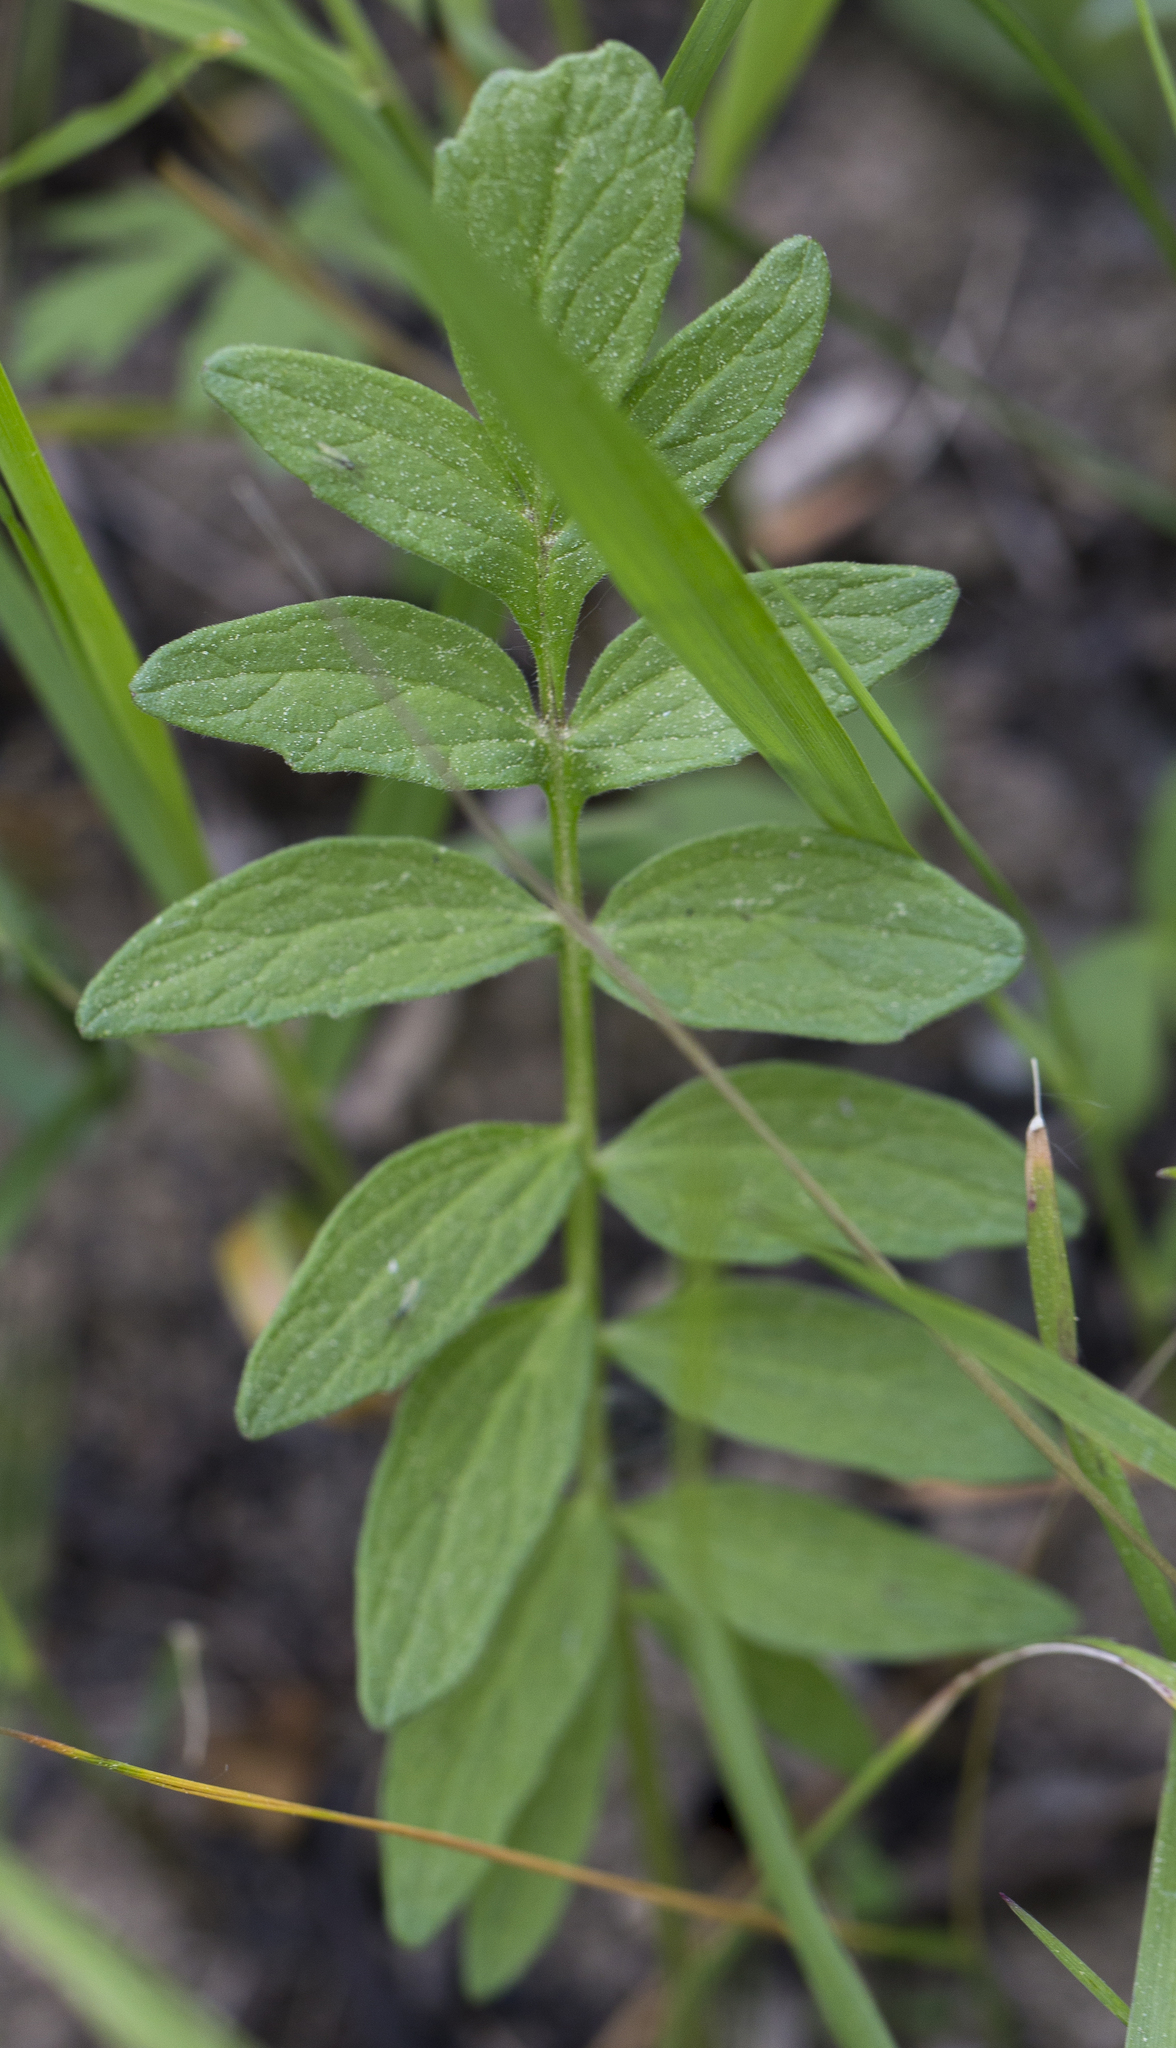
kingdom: Plantae
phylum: Tracheophyta
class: Magnoliopsida
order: Dipsacales
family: Caprifoliaceae
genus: Valeriana
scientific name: Valeriana officinalis
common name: Common valerian
